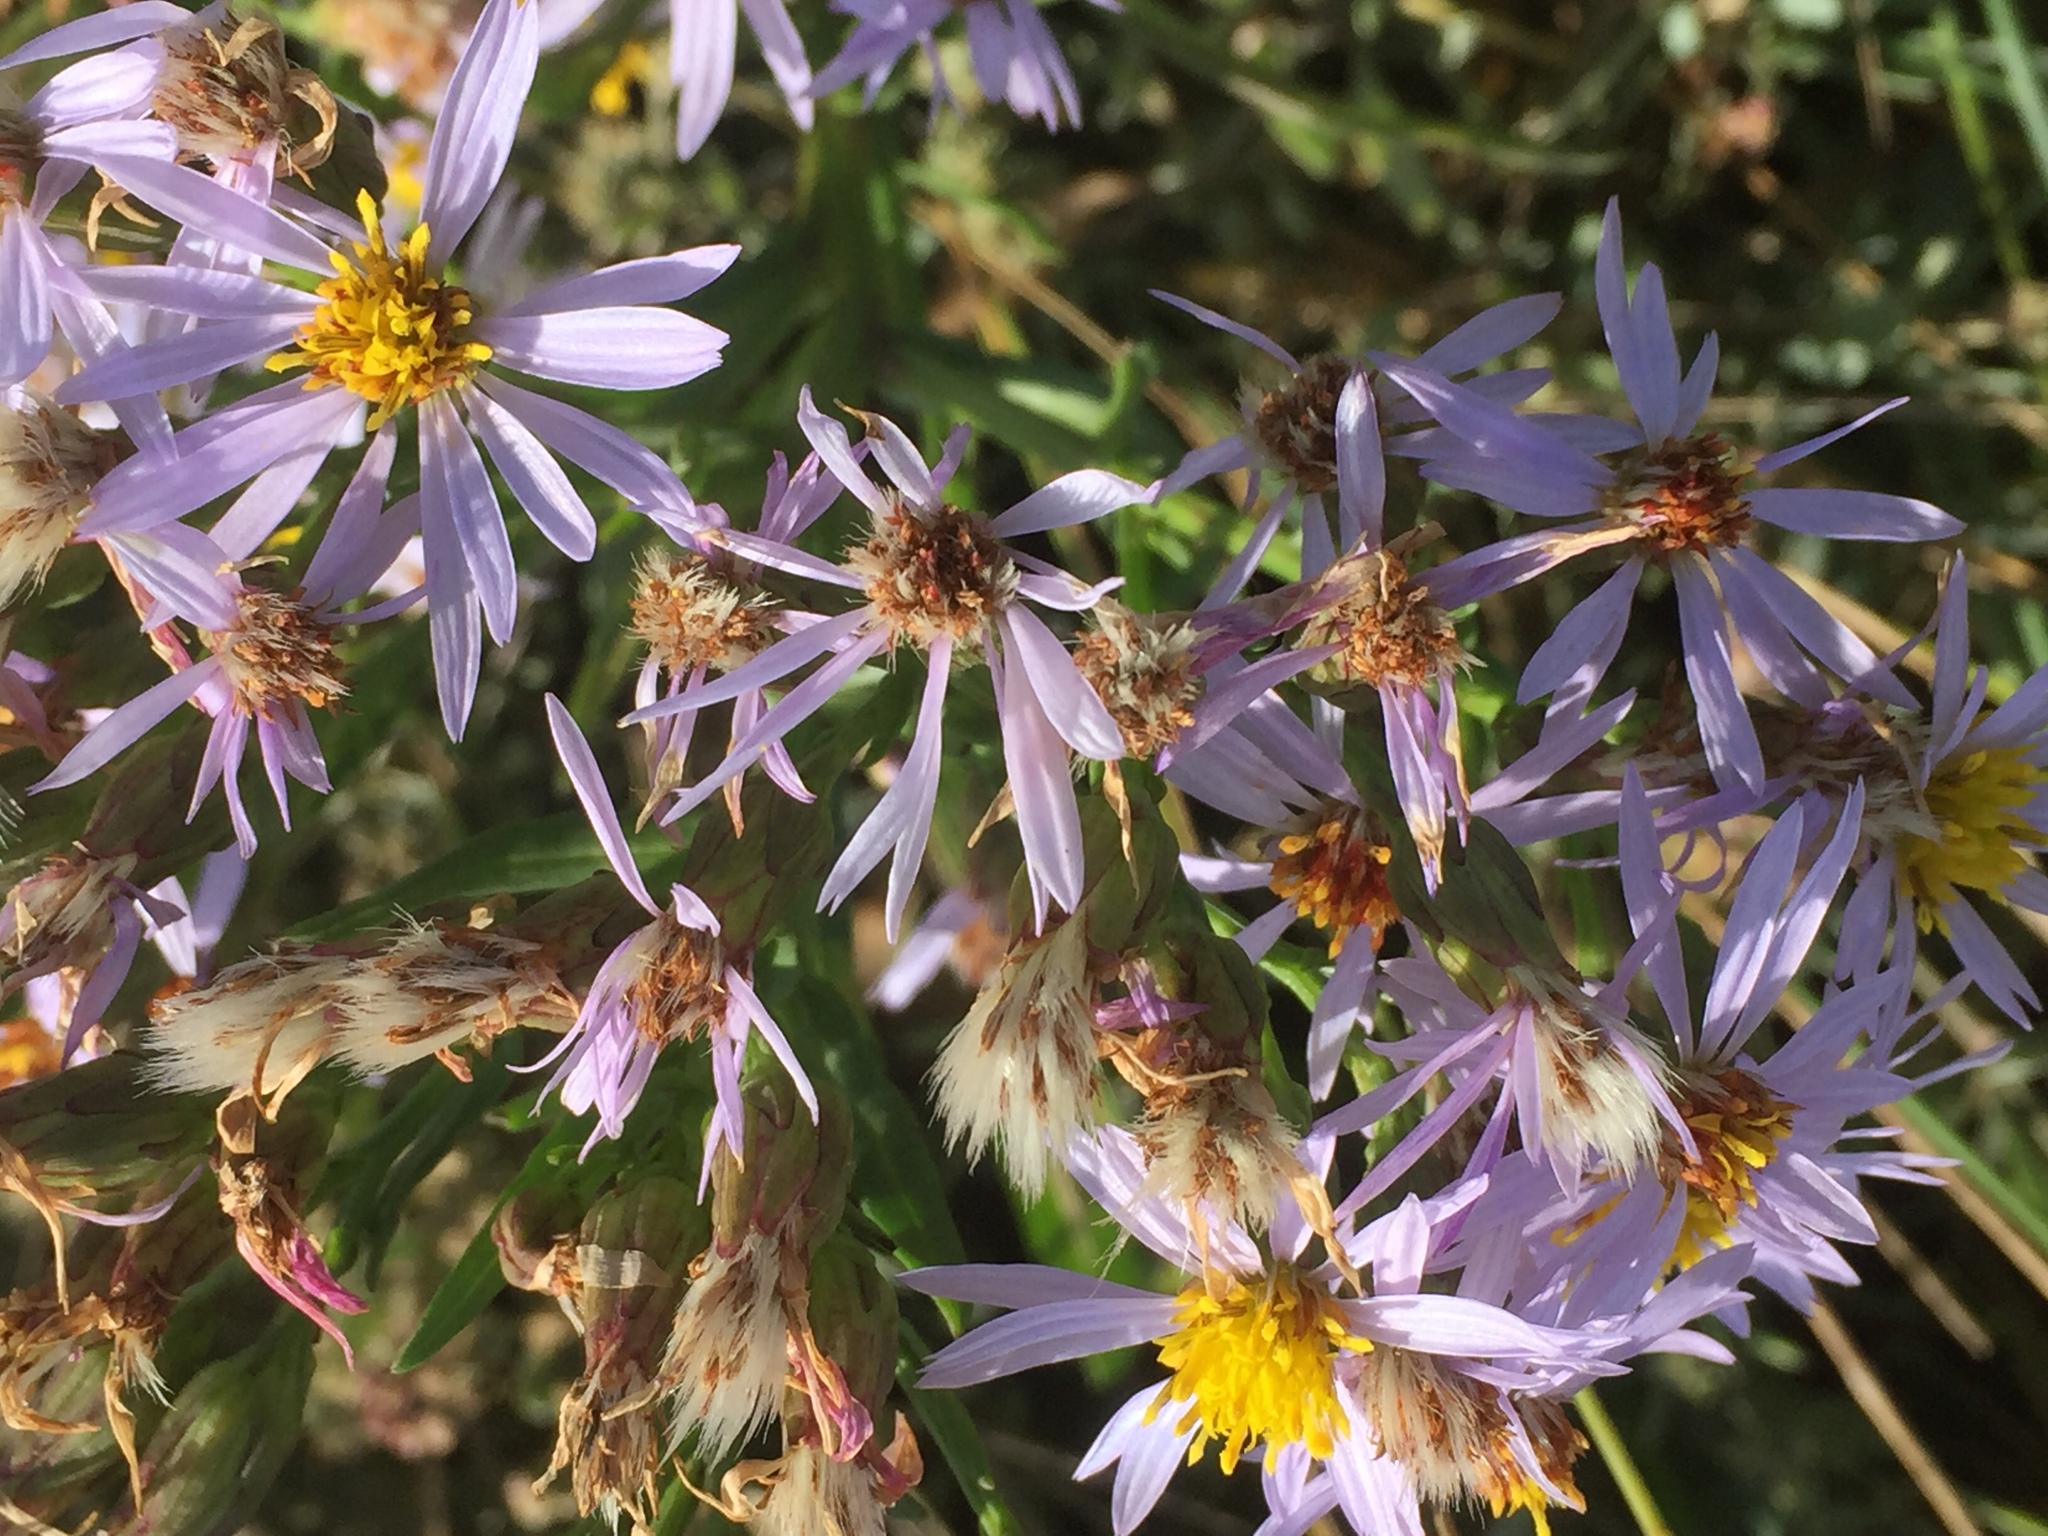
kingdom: Plantae
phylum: Tracheophyta
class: Magnoliopsida
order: Asterales
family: Asteraceae
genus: Tripolium
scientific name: Tripolium pannonicum
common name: Sea aster
